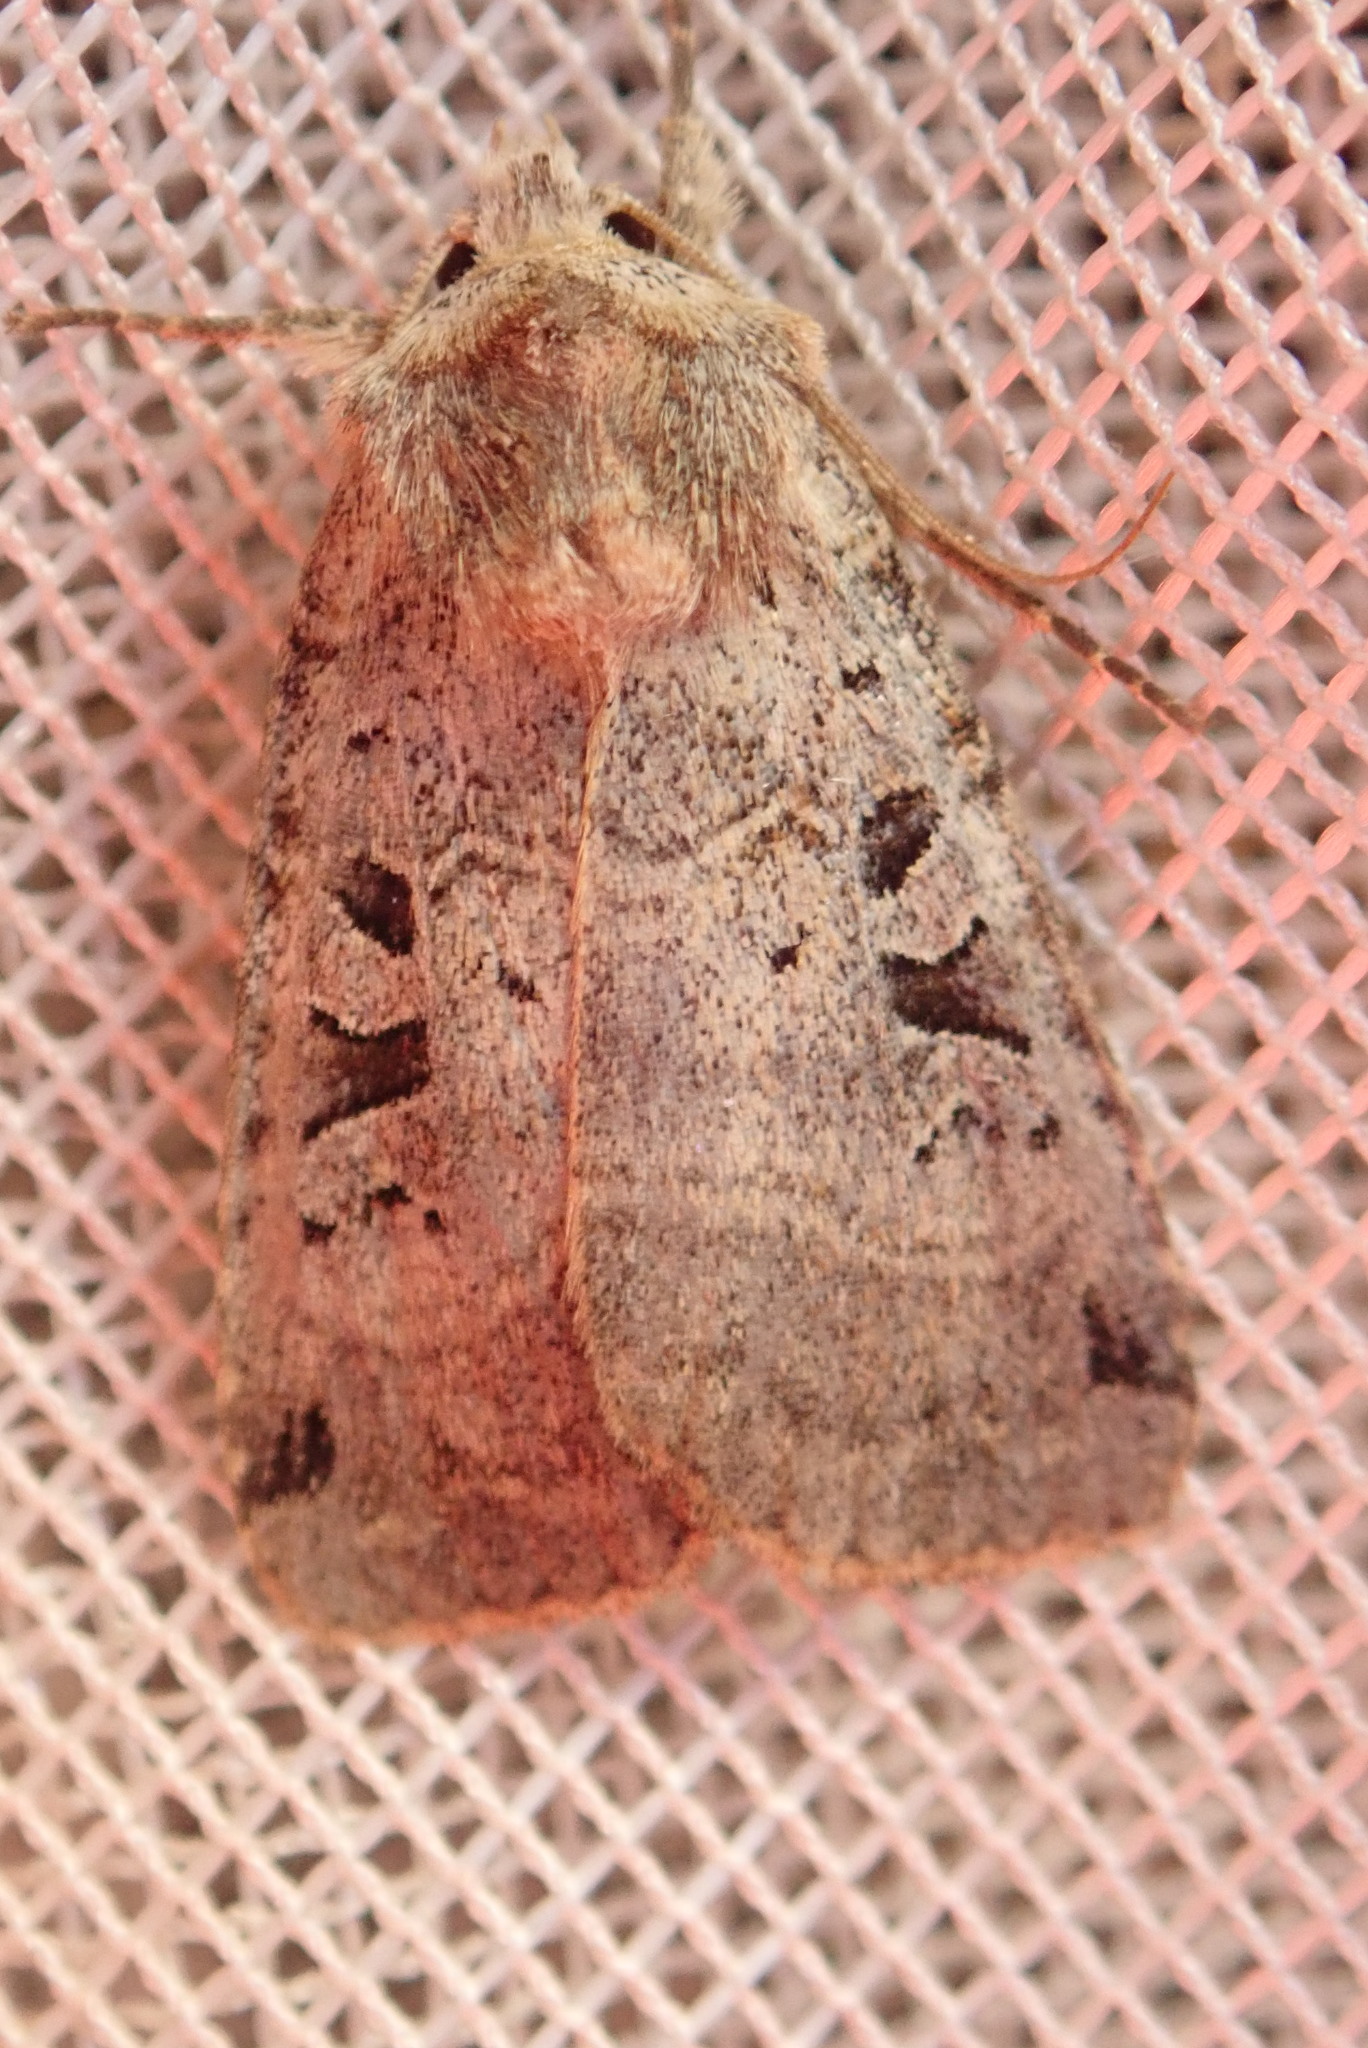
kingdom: Animalia
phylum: Arthropoda
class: Insecta
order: Lepidoptera
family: Noctuidae
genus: Xestia
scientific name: Xestia normaniana
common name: Norman's dart moth
